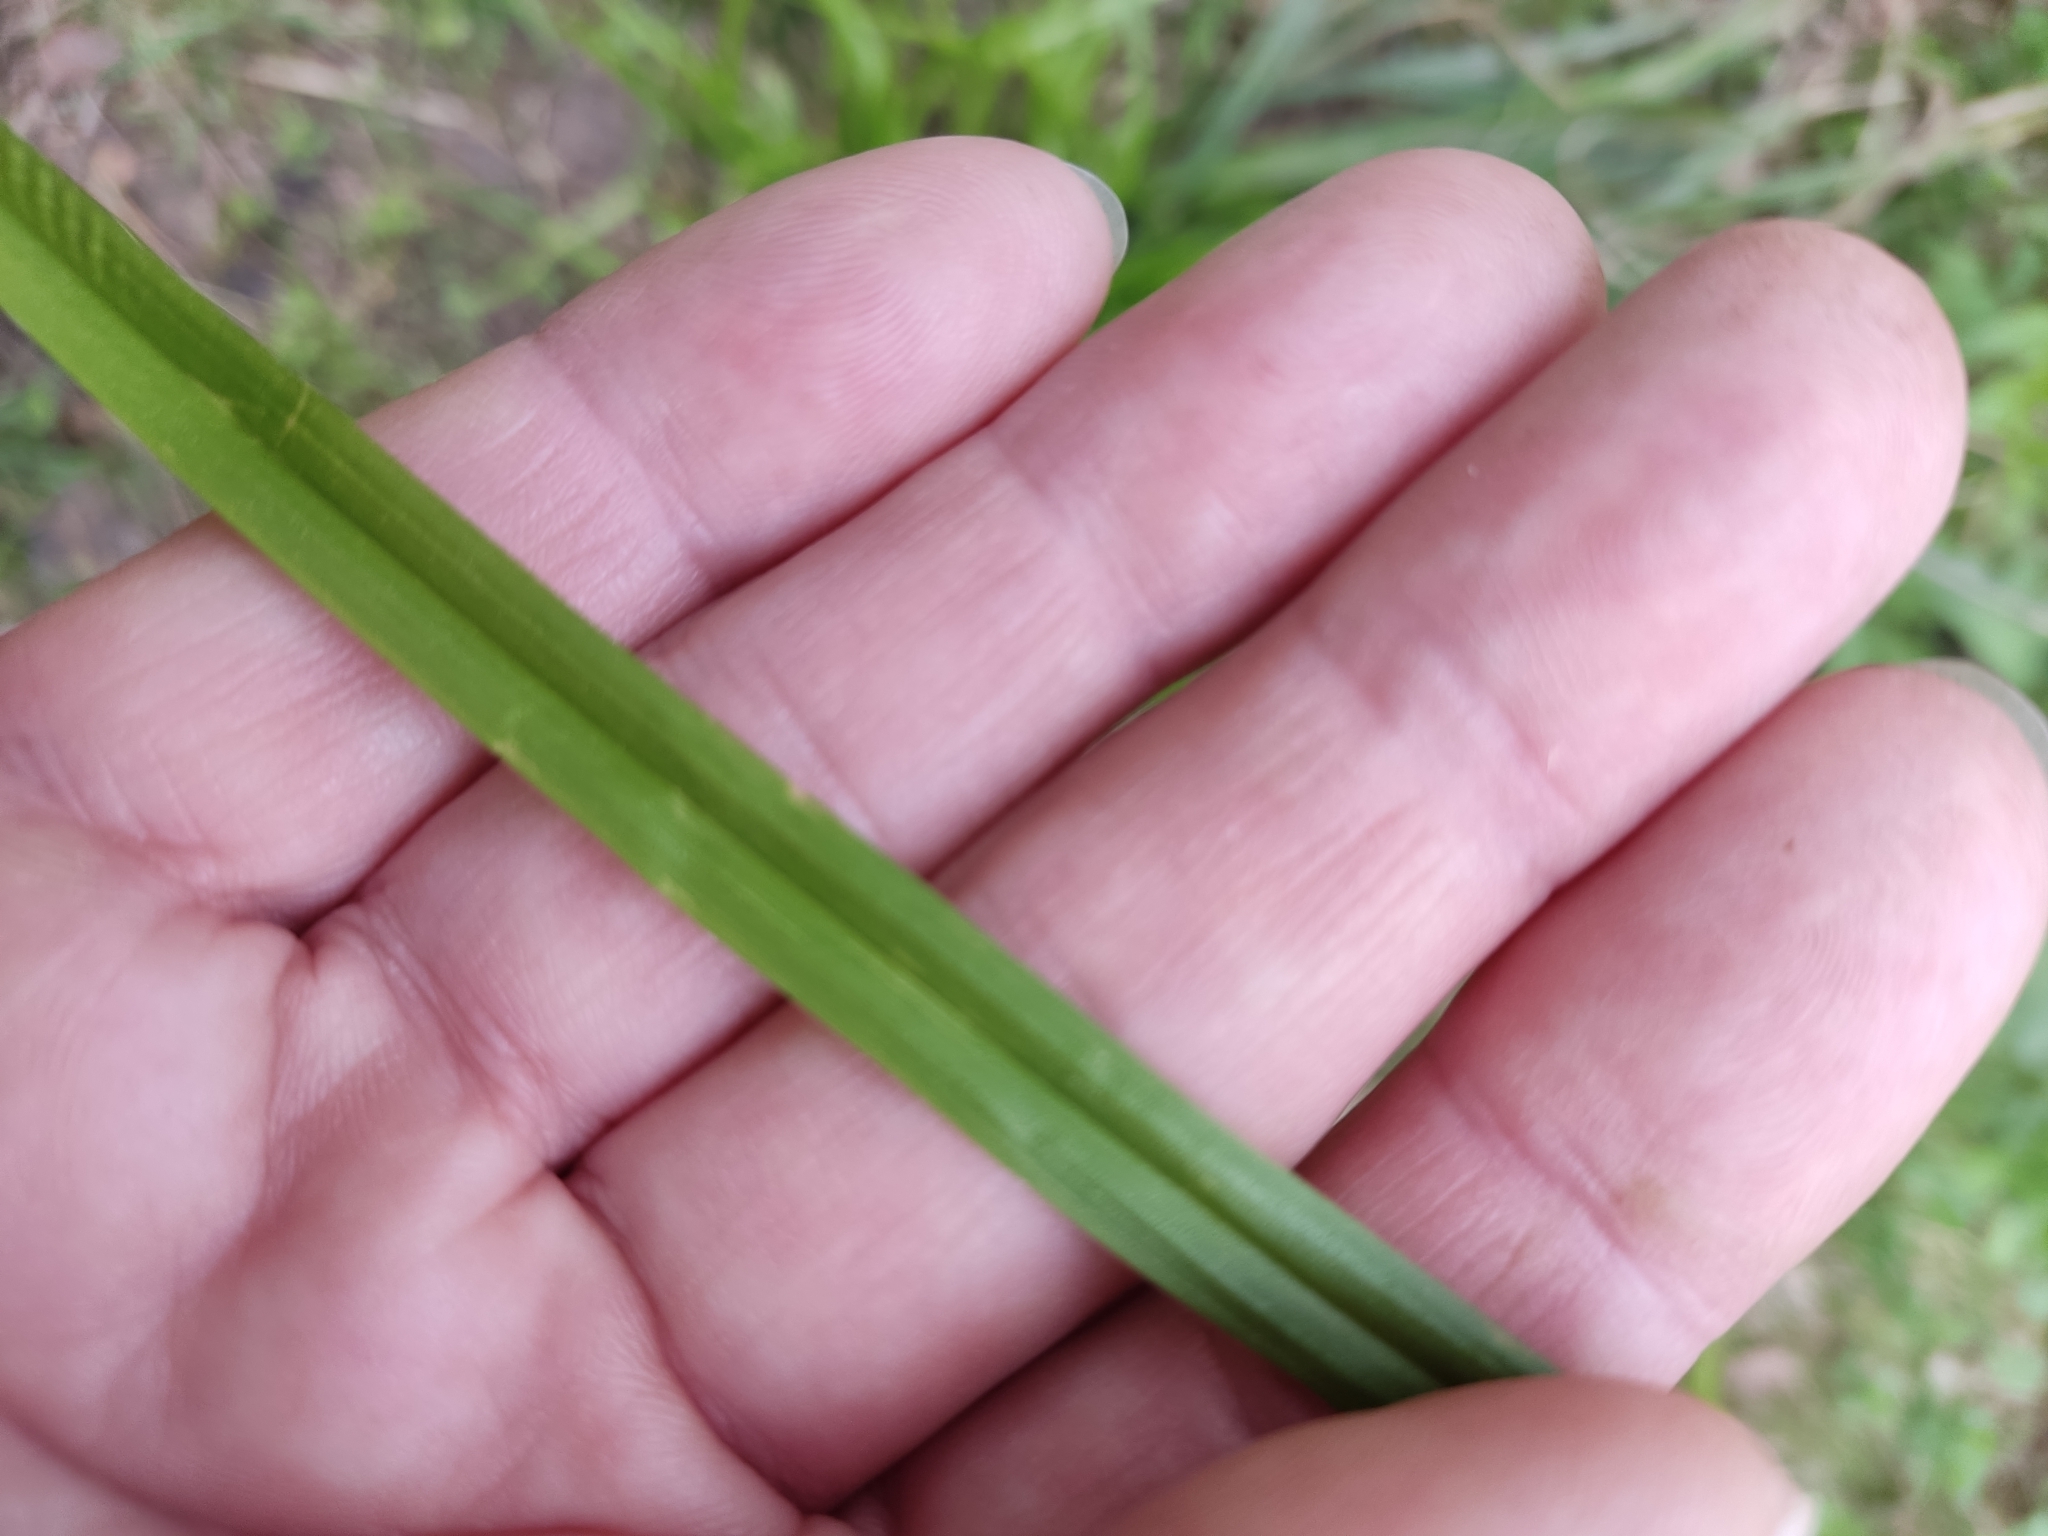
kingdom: Plantae
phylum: Tracheophyta
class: Liliopsida
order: Poales
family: Cyperaceae
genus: Carex
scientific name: Carex sylvatica
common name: Wood-sedge
